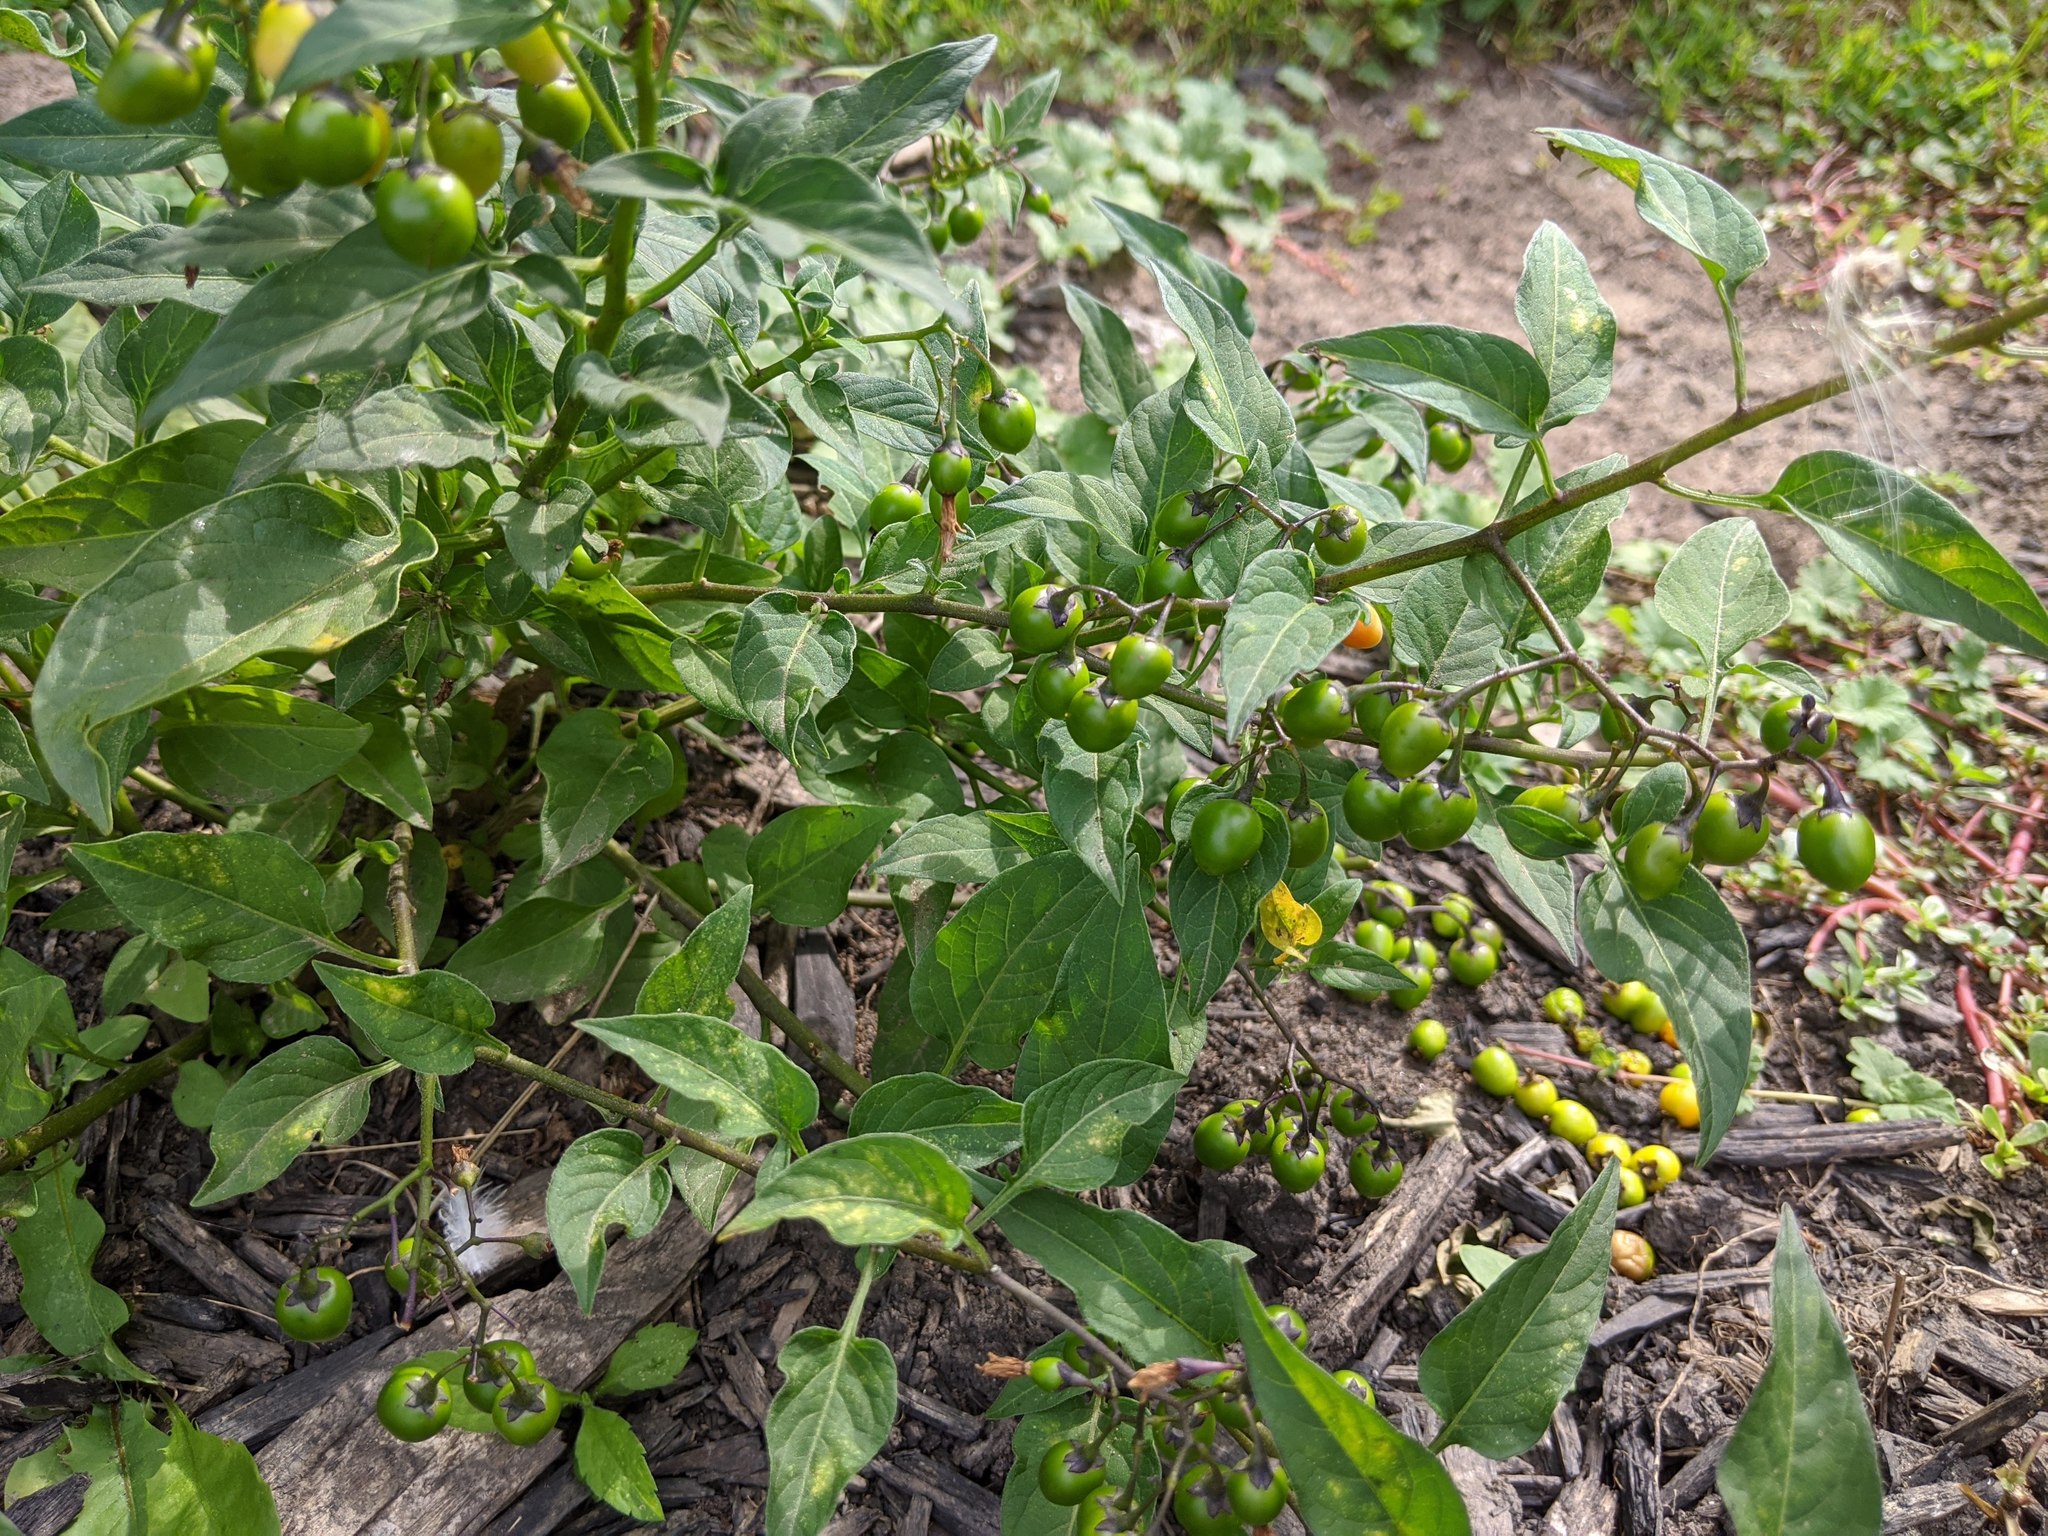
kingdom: Plantae
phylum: Tracheophyta
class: Magnoliopsida
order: Solanales
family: Solanaceae
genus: Solanum
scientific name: Solanum dulcamara
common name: Climbing nightshade
